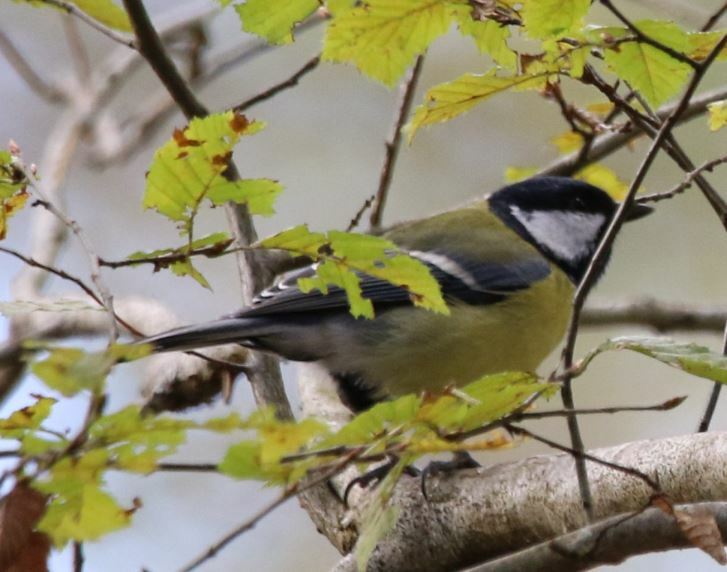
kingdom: Animalia
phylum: Chordata
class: Aves
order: Passeriformes
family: Paridae
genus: Parus
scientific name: Parus major
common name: Great tit
